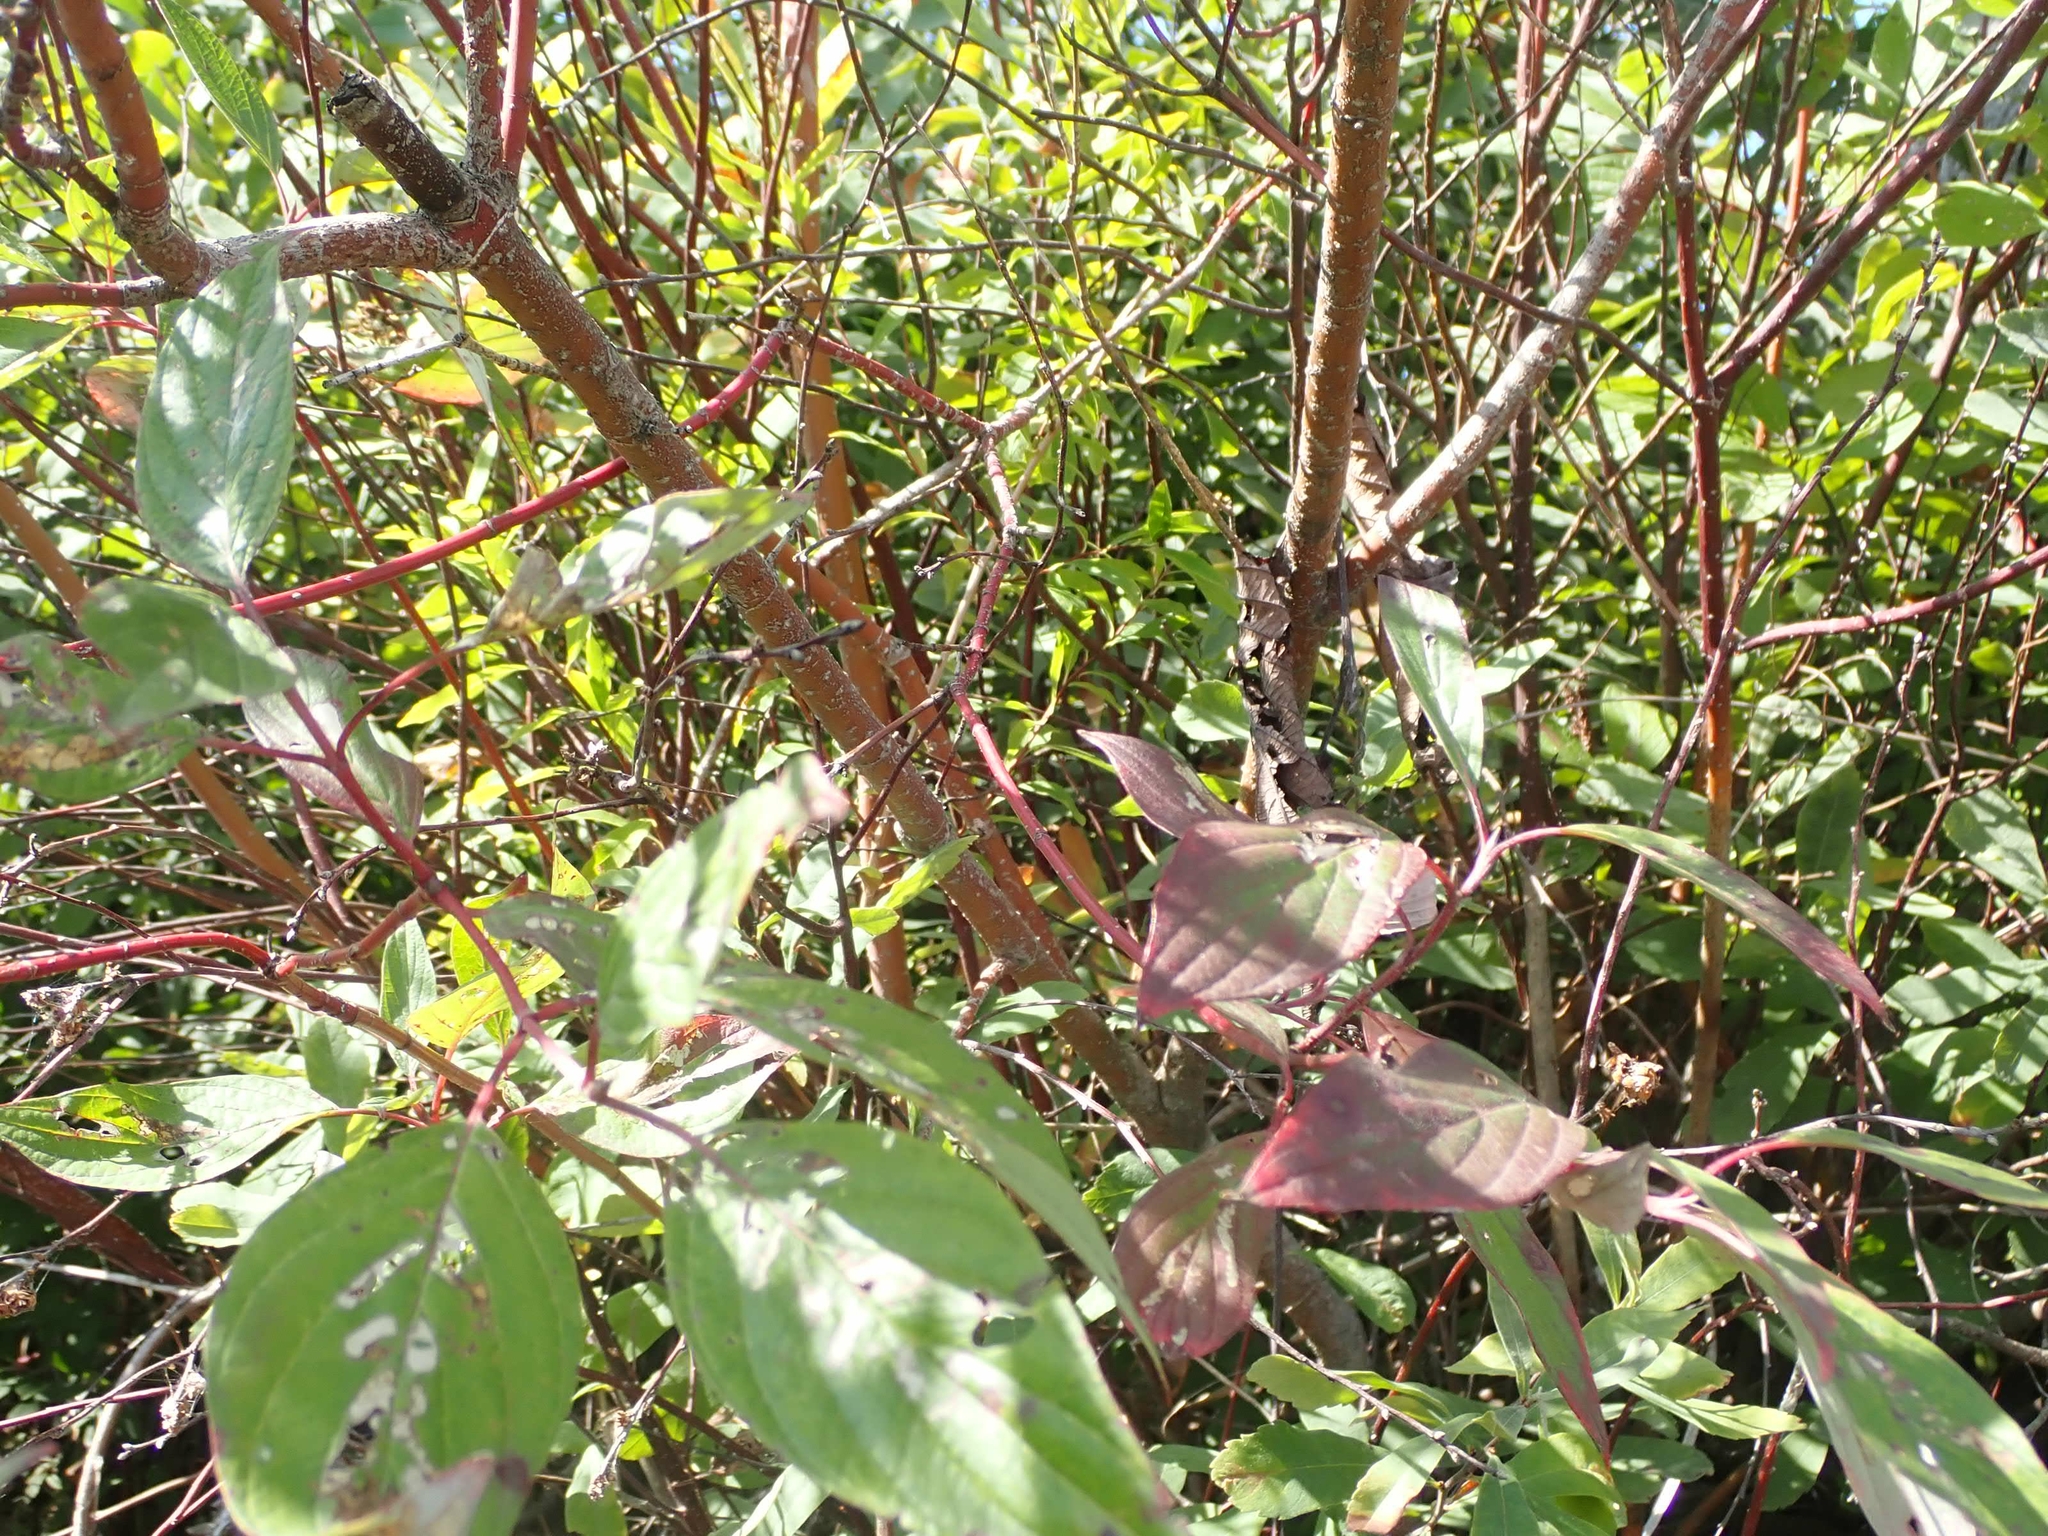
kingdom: Plantae
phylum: Tracheophyta
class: Magnoliopsida
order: Cornales
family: Cornaceae
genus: Cornus
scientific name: Cornus sericea
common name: Red-osier dogwood
